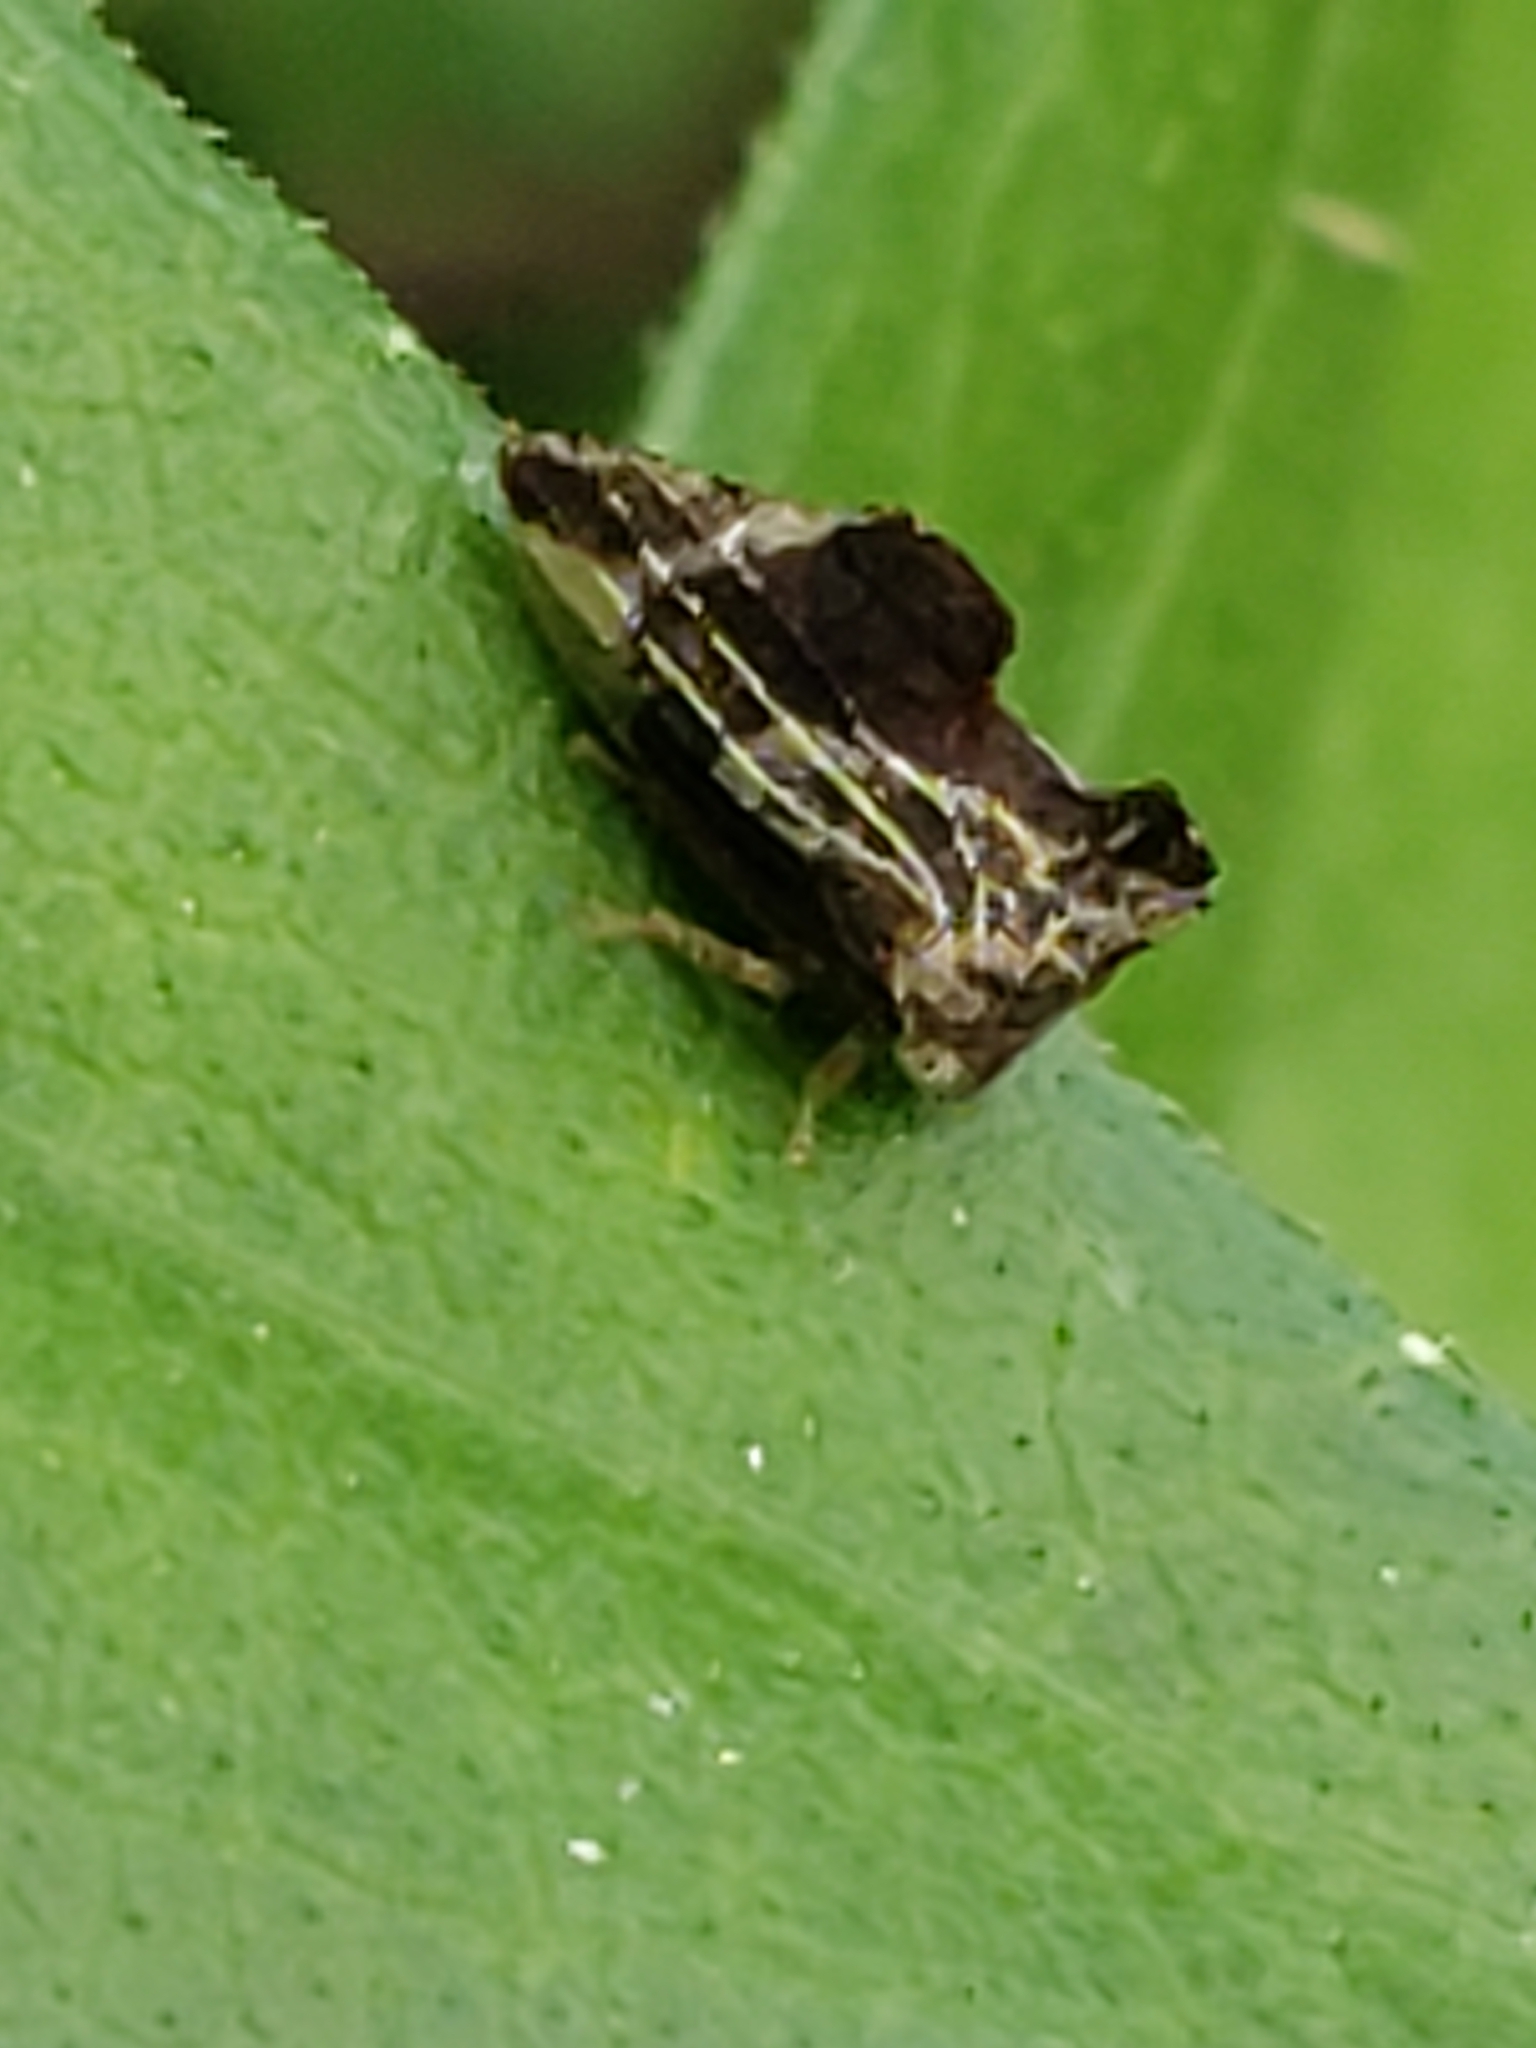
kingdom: Animalia
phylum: Arthropoda
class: Insecta
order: Hemiptera
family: Membracidae
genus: Entylia
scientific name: Entylia carinata
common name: Keeled treehopper
